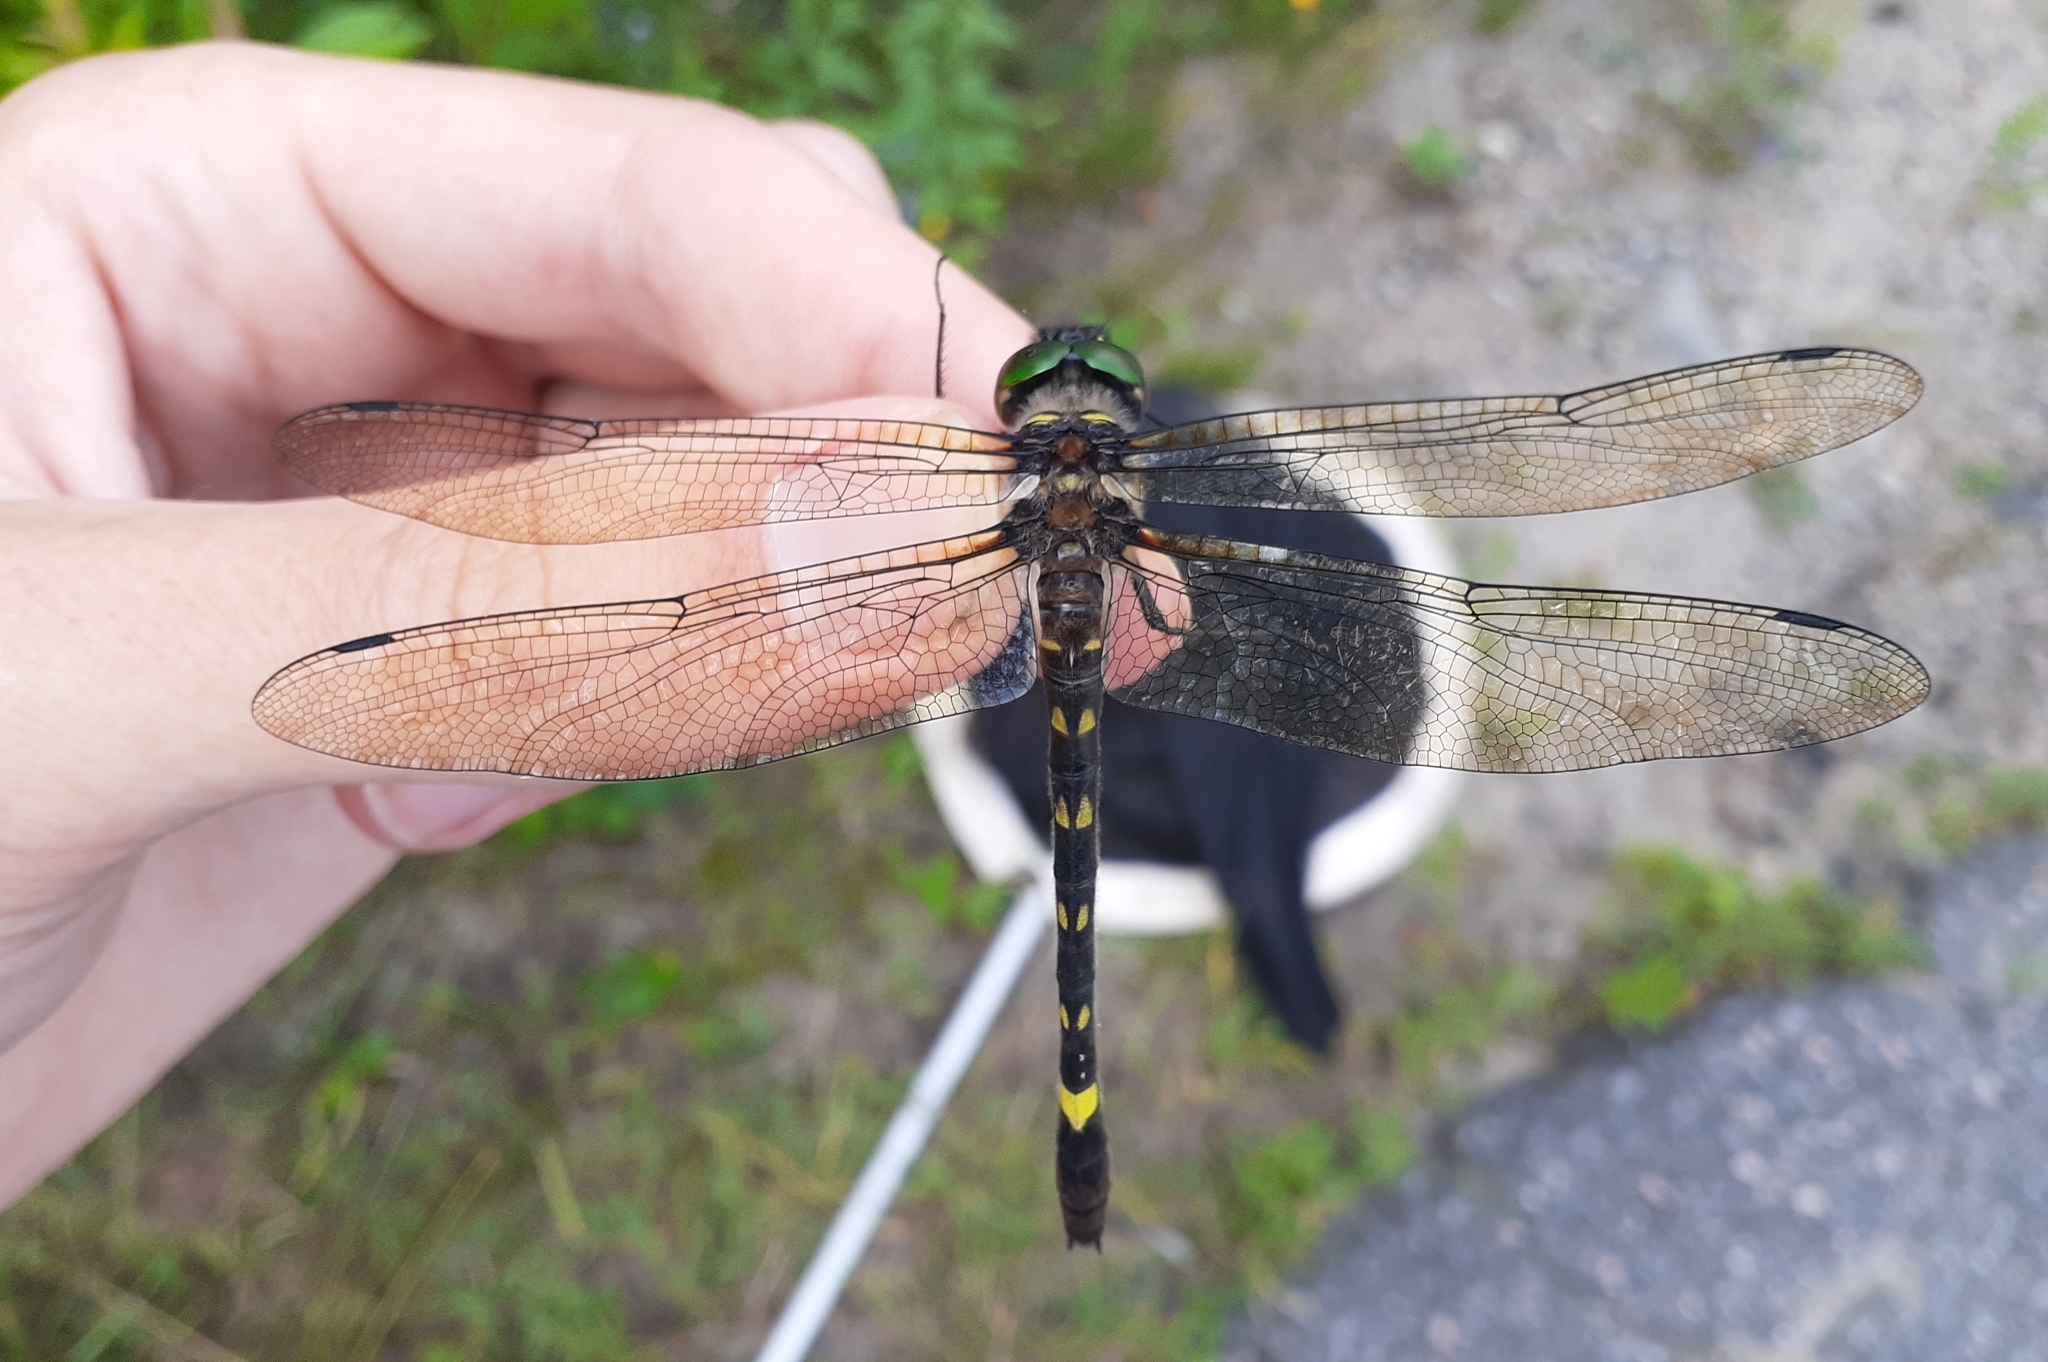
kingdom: Animalia
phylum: Arthropoda
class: Insecta
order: Odonata
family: Macromiidae
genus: Macromia
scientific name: Macromia illinoiensis
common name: Swift river cruiser
